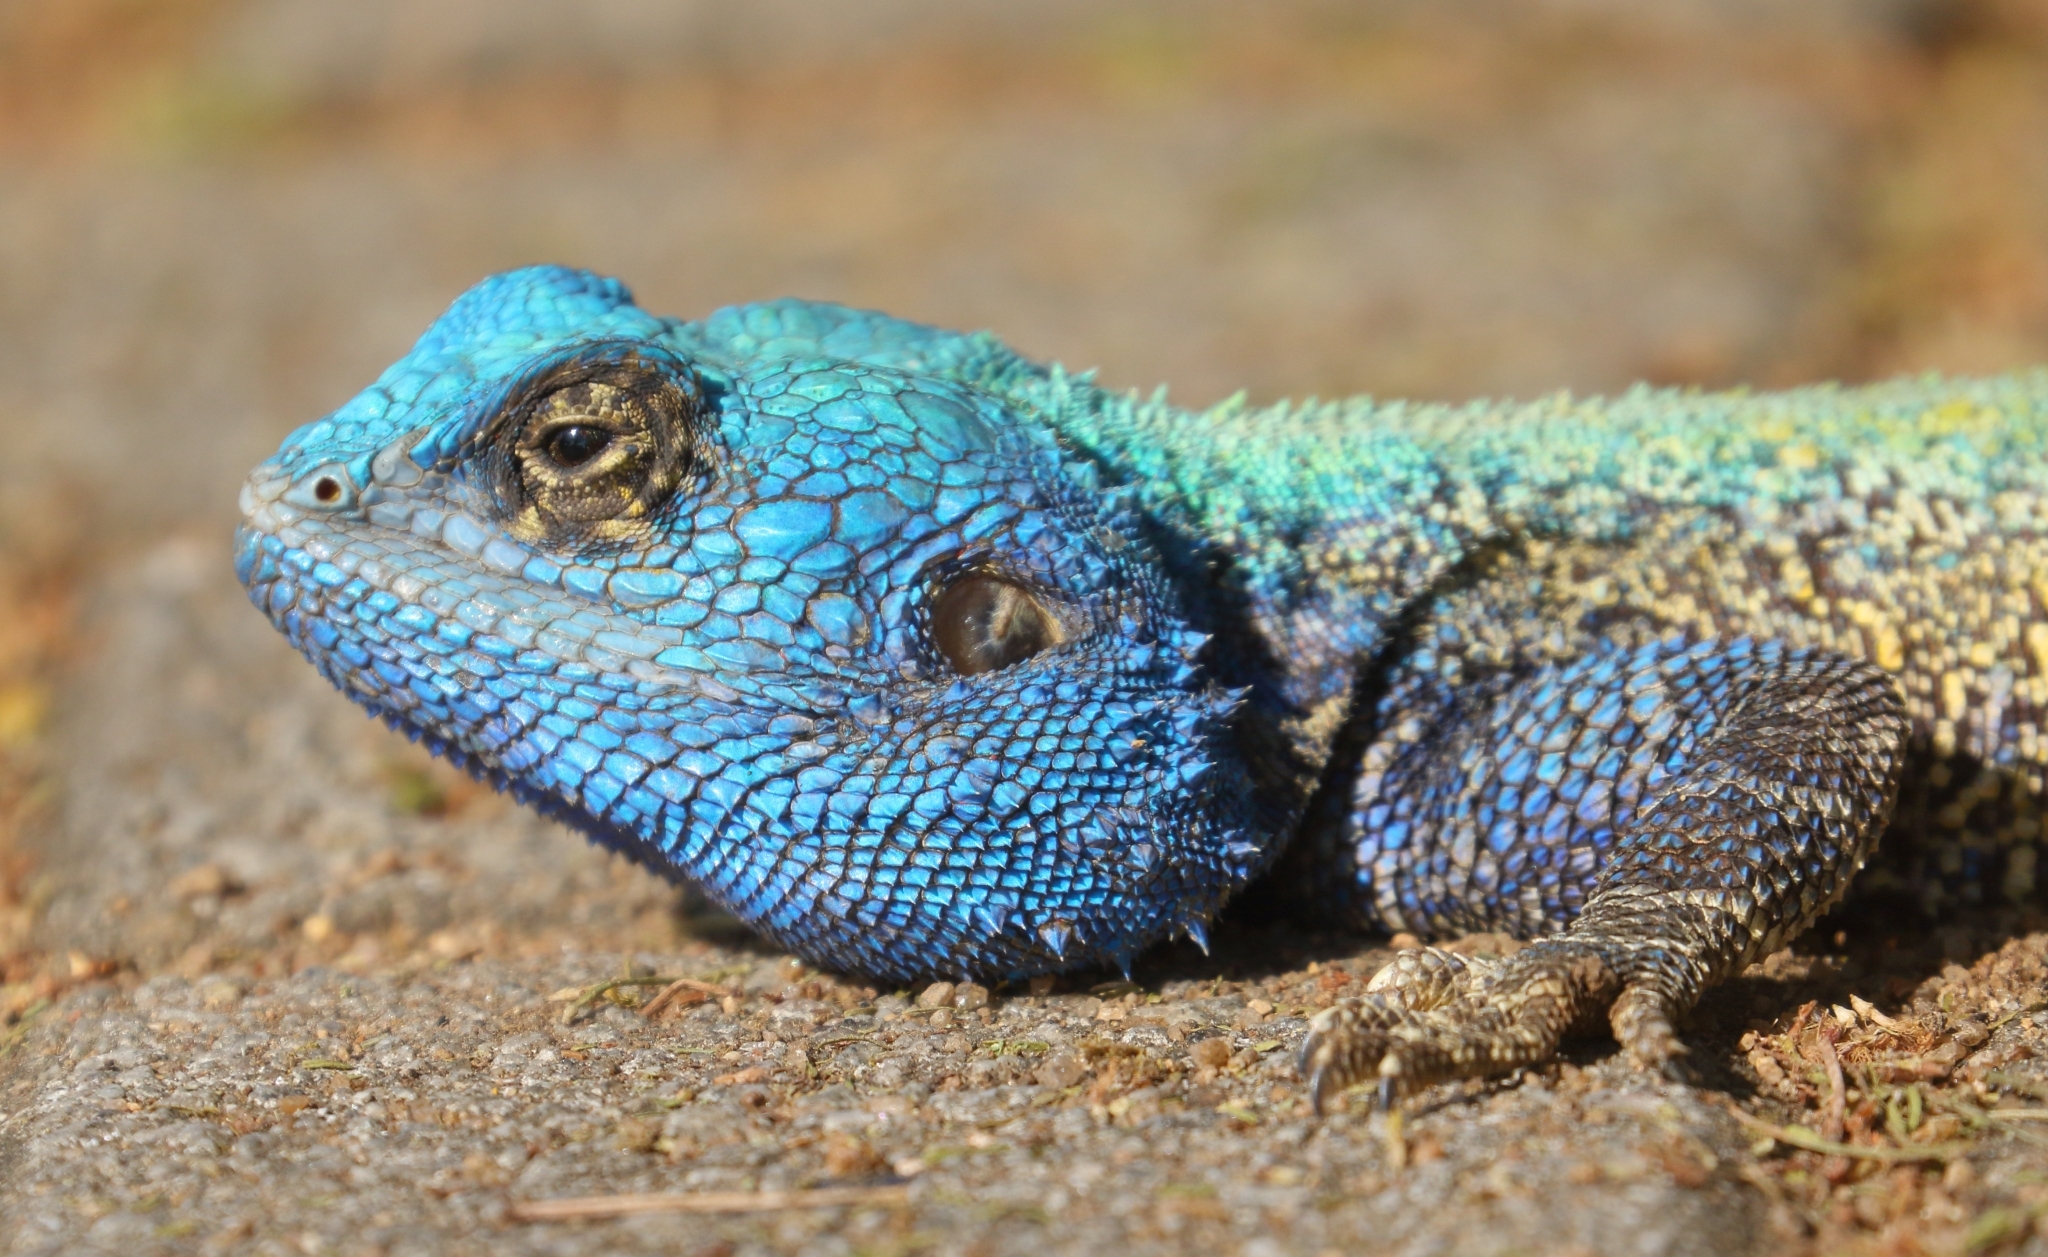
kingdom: Animalia
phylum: Chordata
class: Squamata
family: Agamidae
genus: Acanthocercus
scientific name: Acanthocercus atricollis
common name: Southern tree agama
